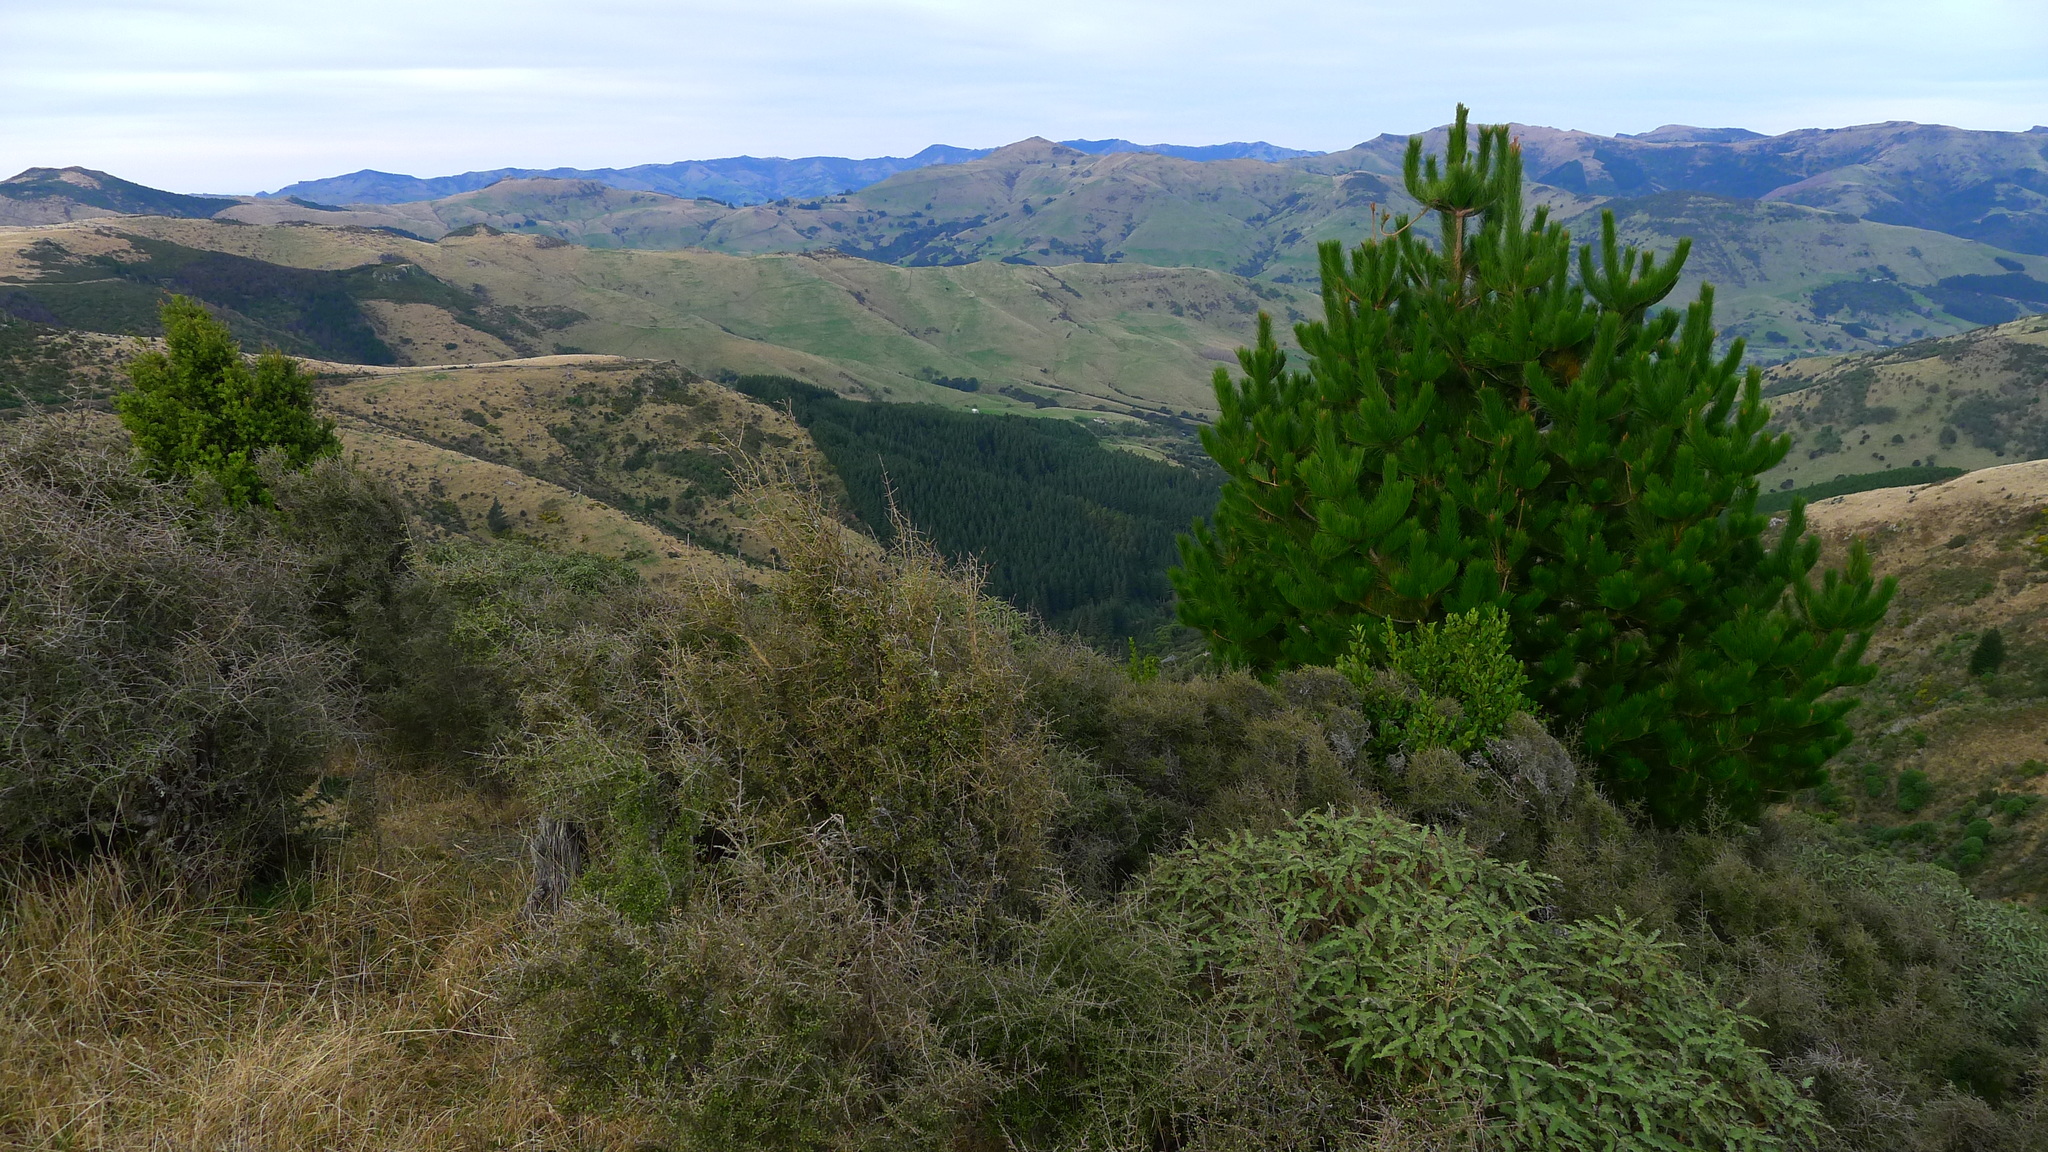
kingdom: Plantae
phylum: Tracheophyta
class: Pinopsida
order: Pinales
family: Pinaceae
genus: Pinus
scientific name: Pinus radiata
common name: Monterey pine
